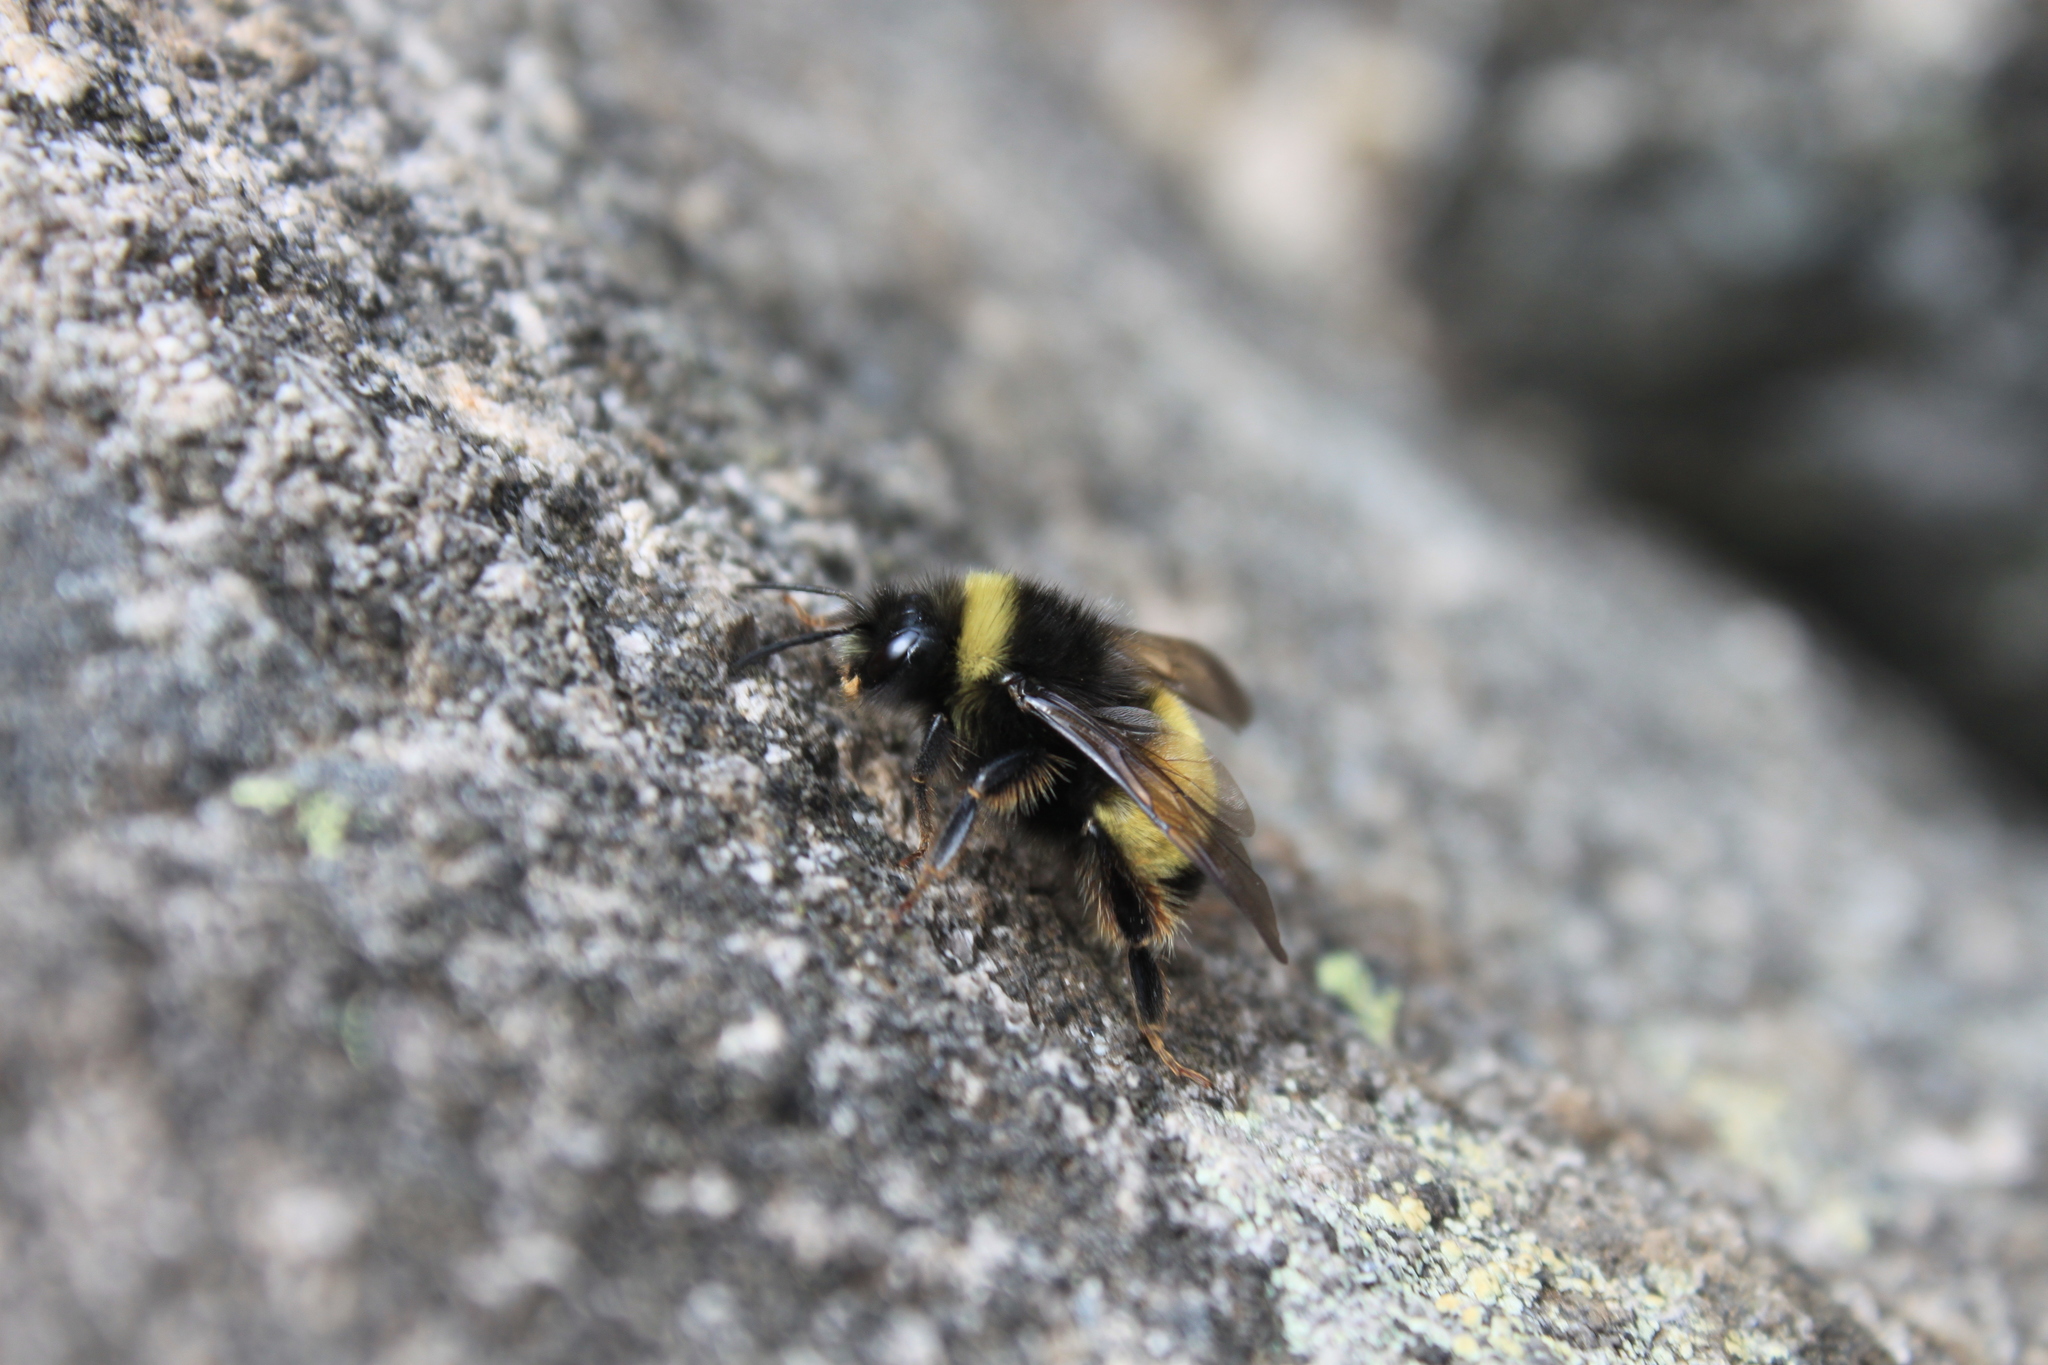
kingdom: Animalia
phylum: Arthropoda
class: Insecta
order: Hymenoptera
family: Apidae
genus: Bombus
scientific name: Bombus terricola
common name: Yellow-banded bumble bee
